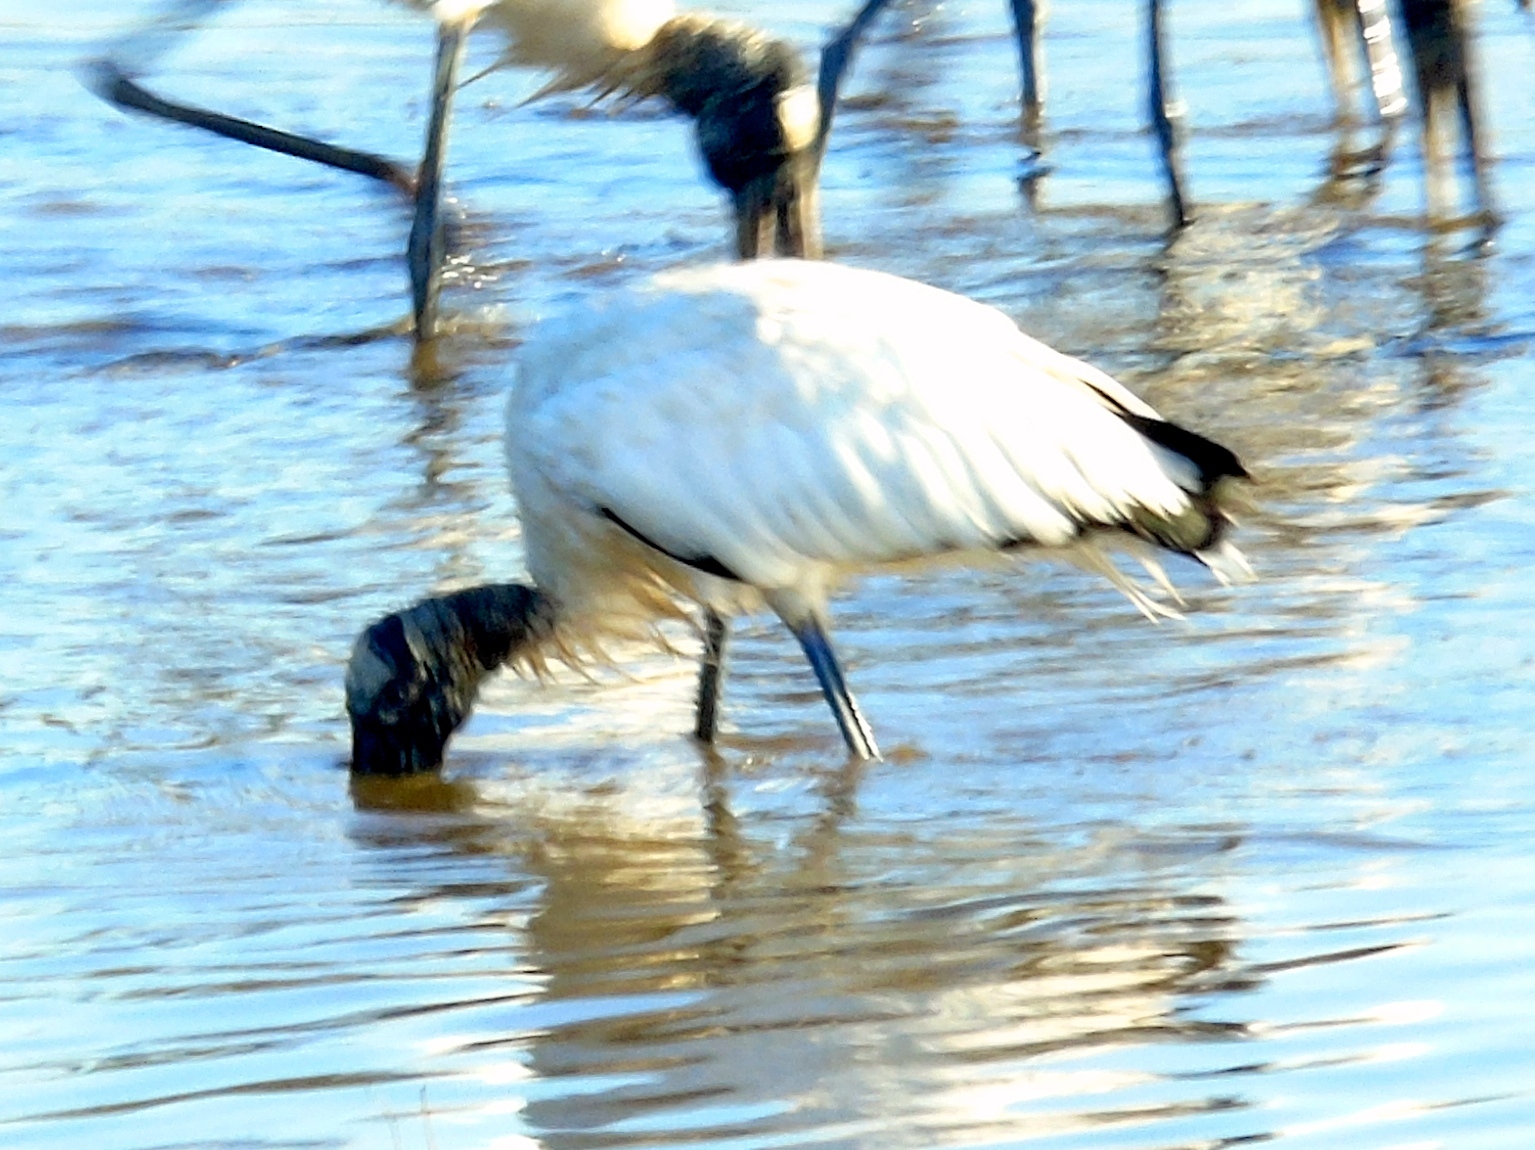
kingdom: Animalia
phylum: Chordata
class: Aves
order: Ciconiiformes
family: Ciconiidae
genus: Mycteria
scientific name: Mycteria americana
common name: Wood stork
